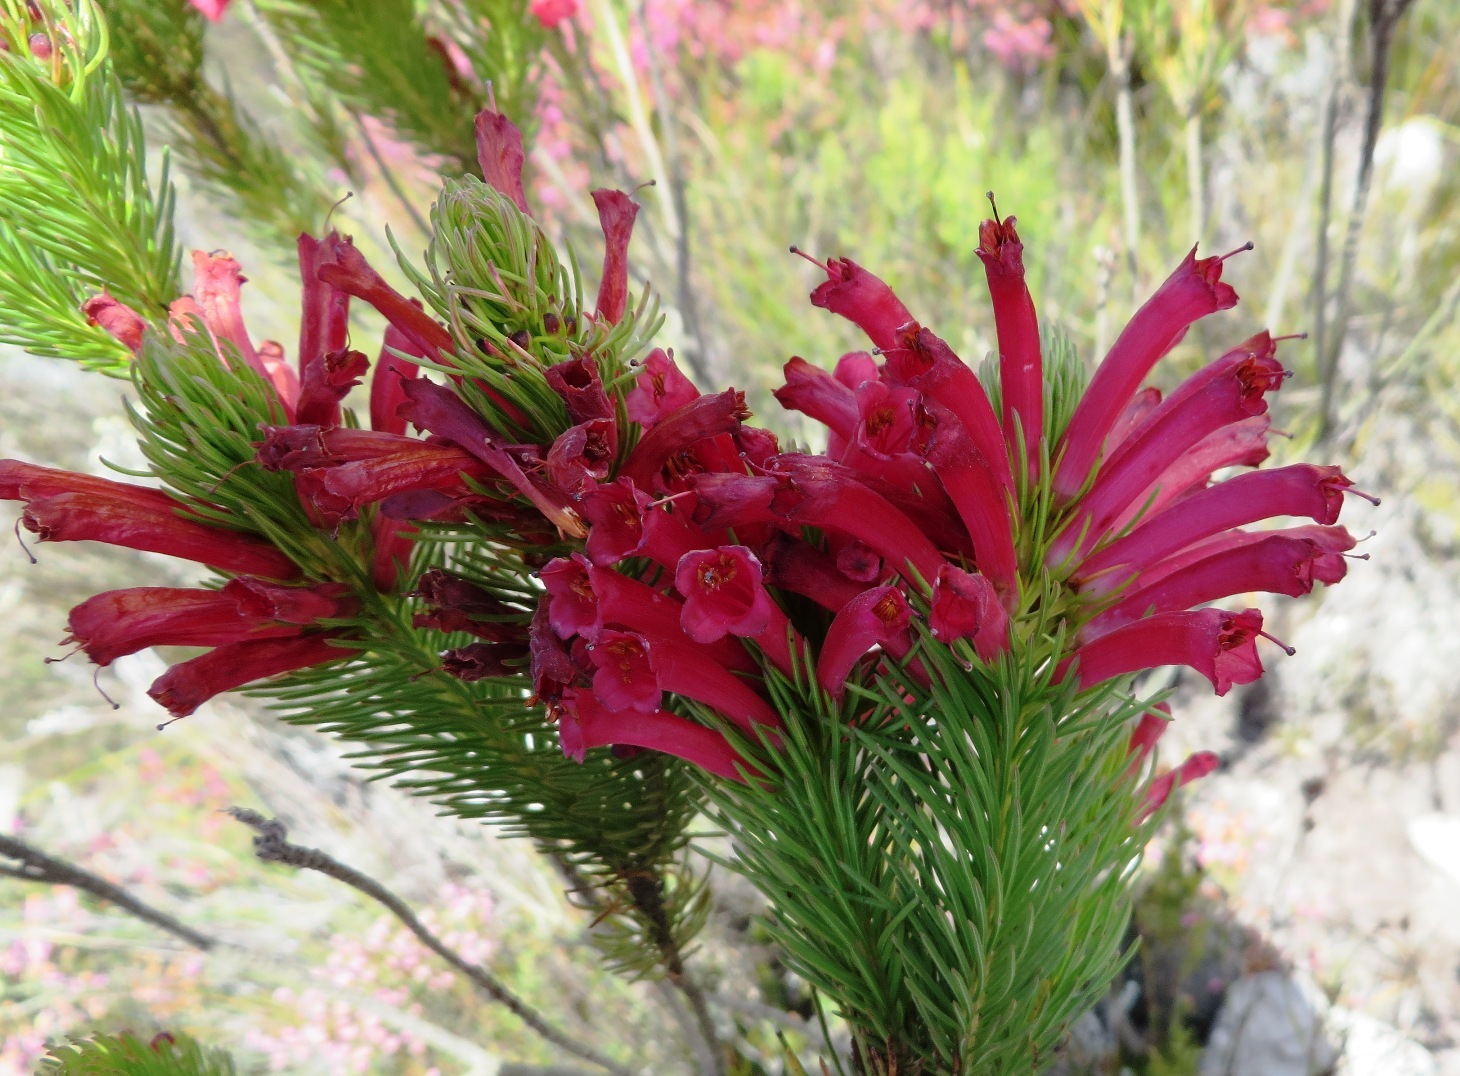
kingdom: Plantae
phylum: Tracheophyta
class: Magnoliopsida
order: Ericales
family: Ericaceae
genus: Erica
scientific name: Erica vestita
